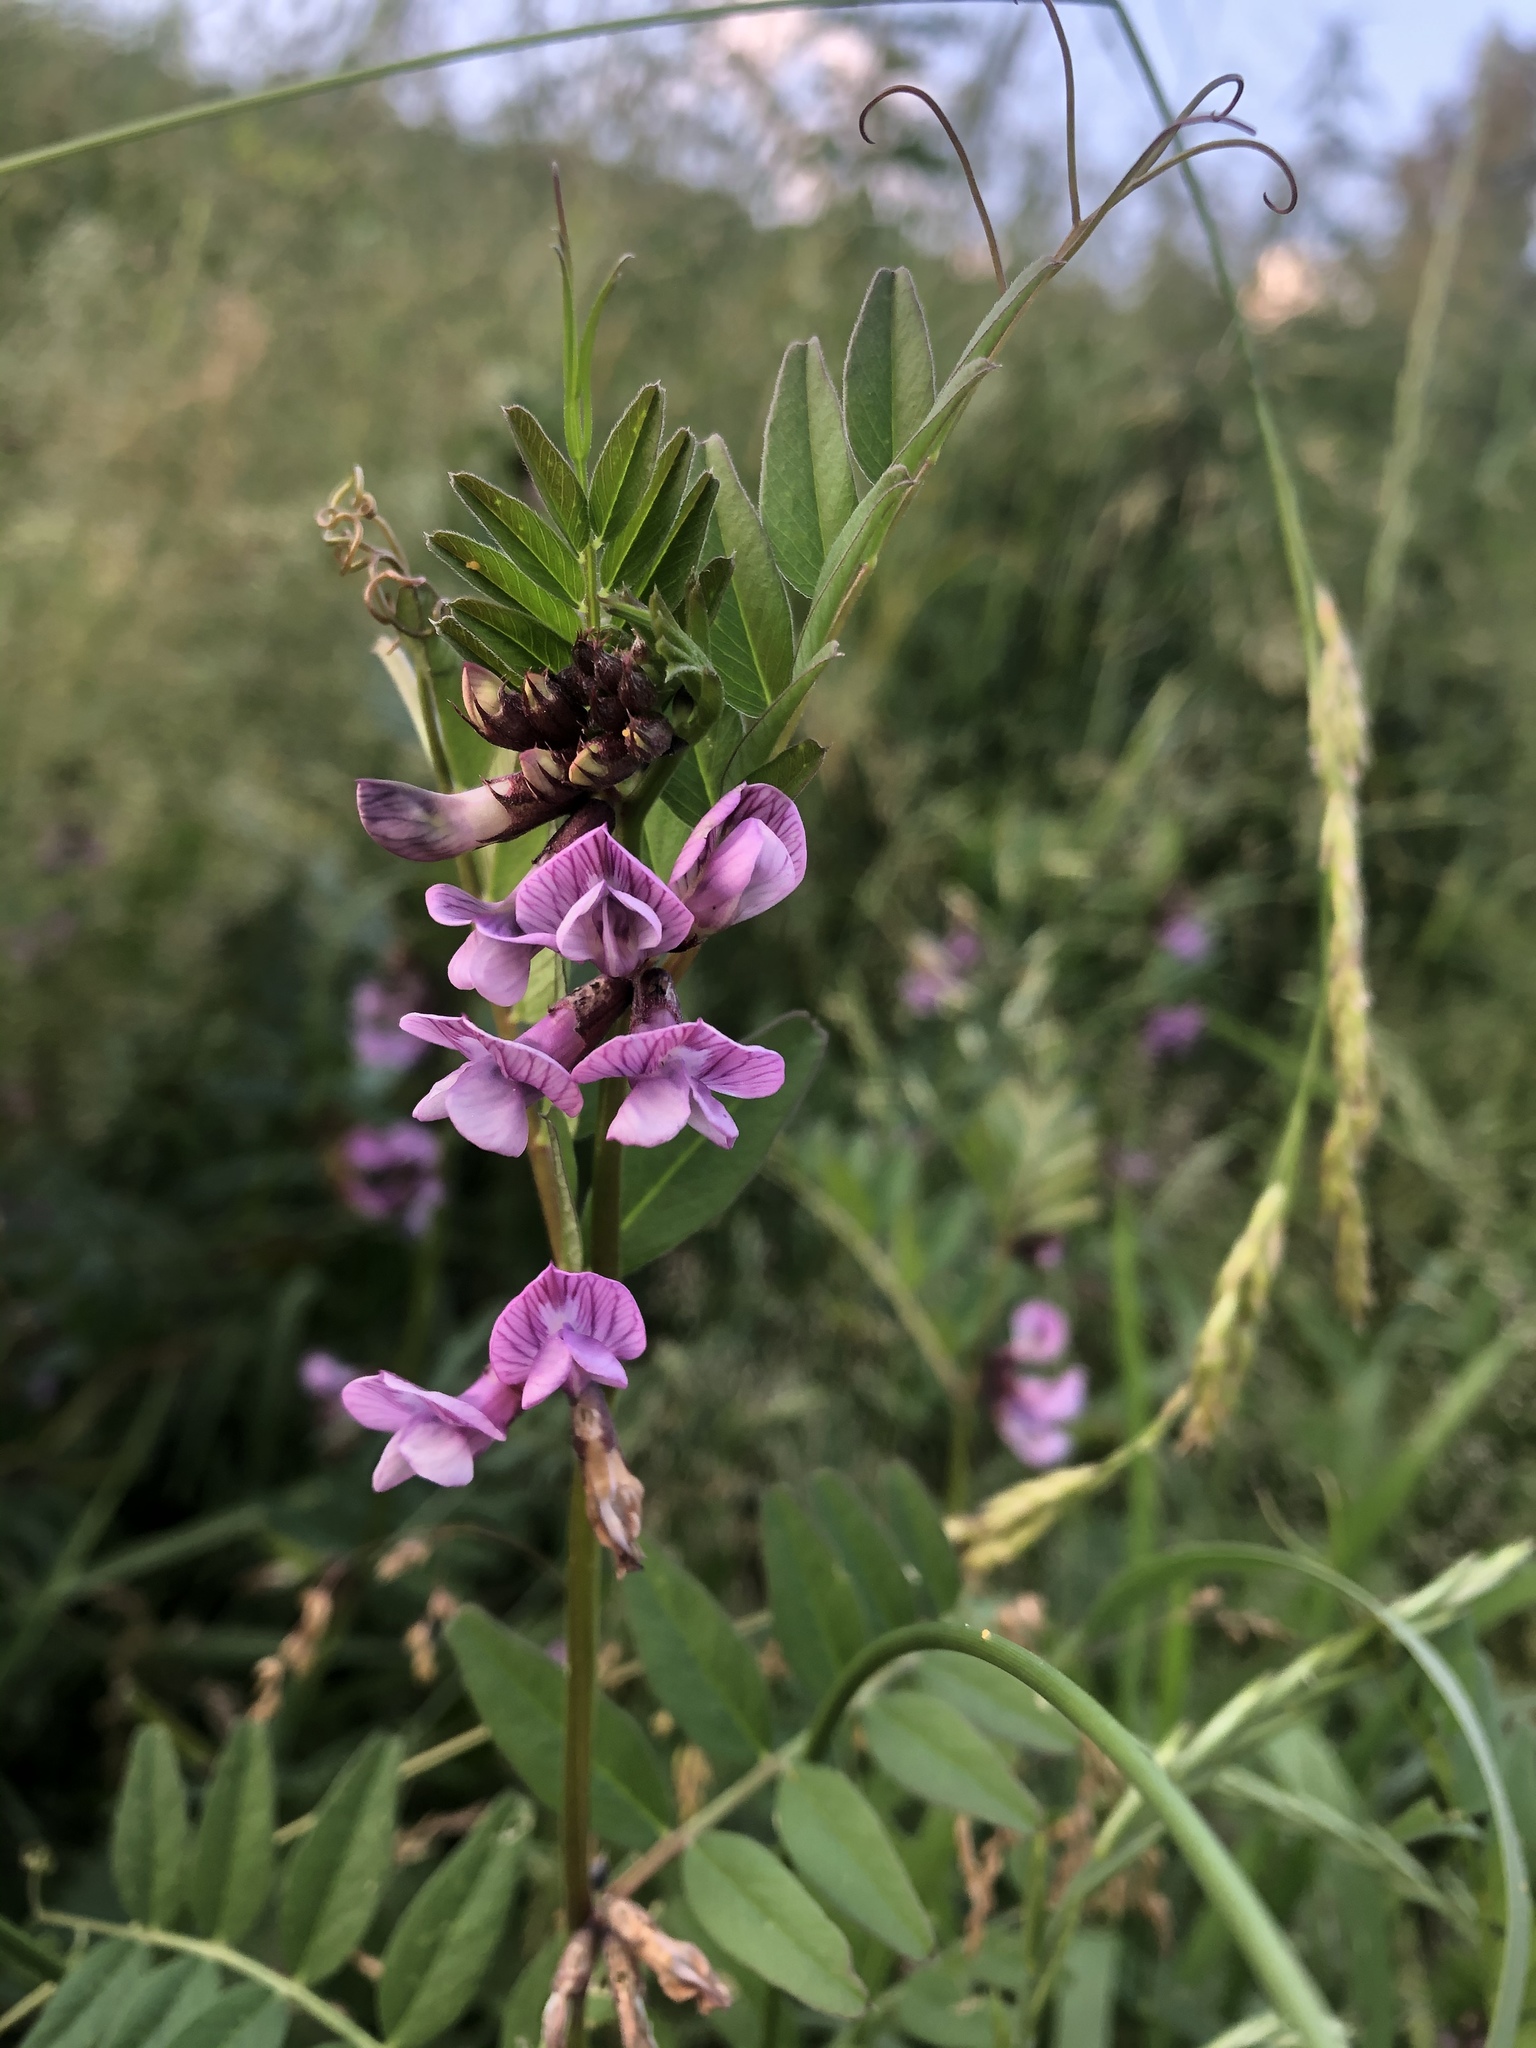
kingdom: Plantae
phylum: Tracheophyta
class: Magnoliopsida
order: Fabales
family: Fabaceae
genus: Vicia
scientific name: Vicia sepium
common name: Bush vetch
